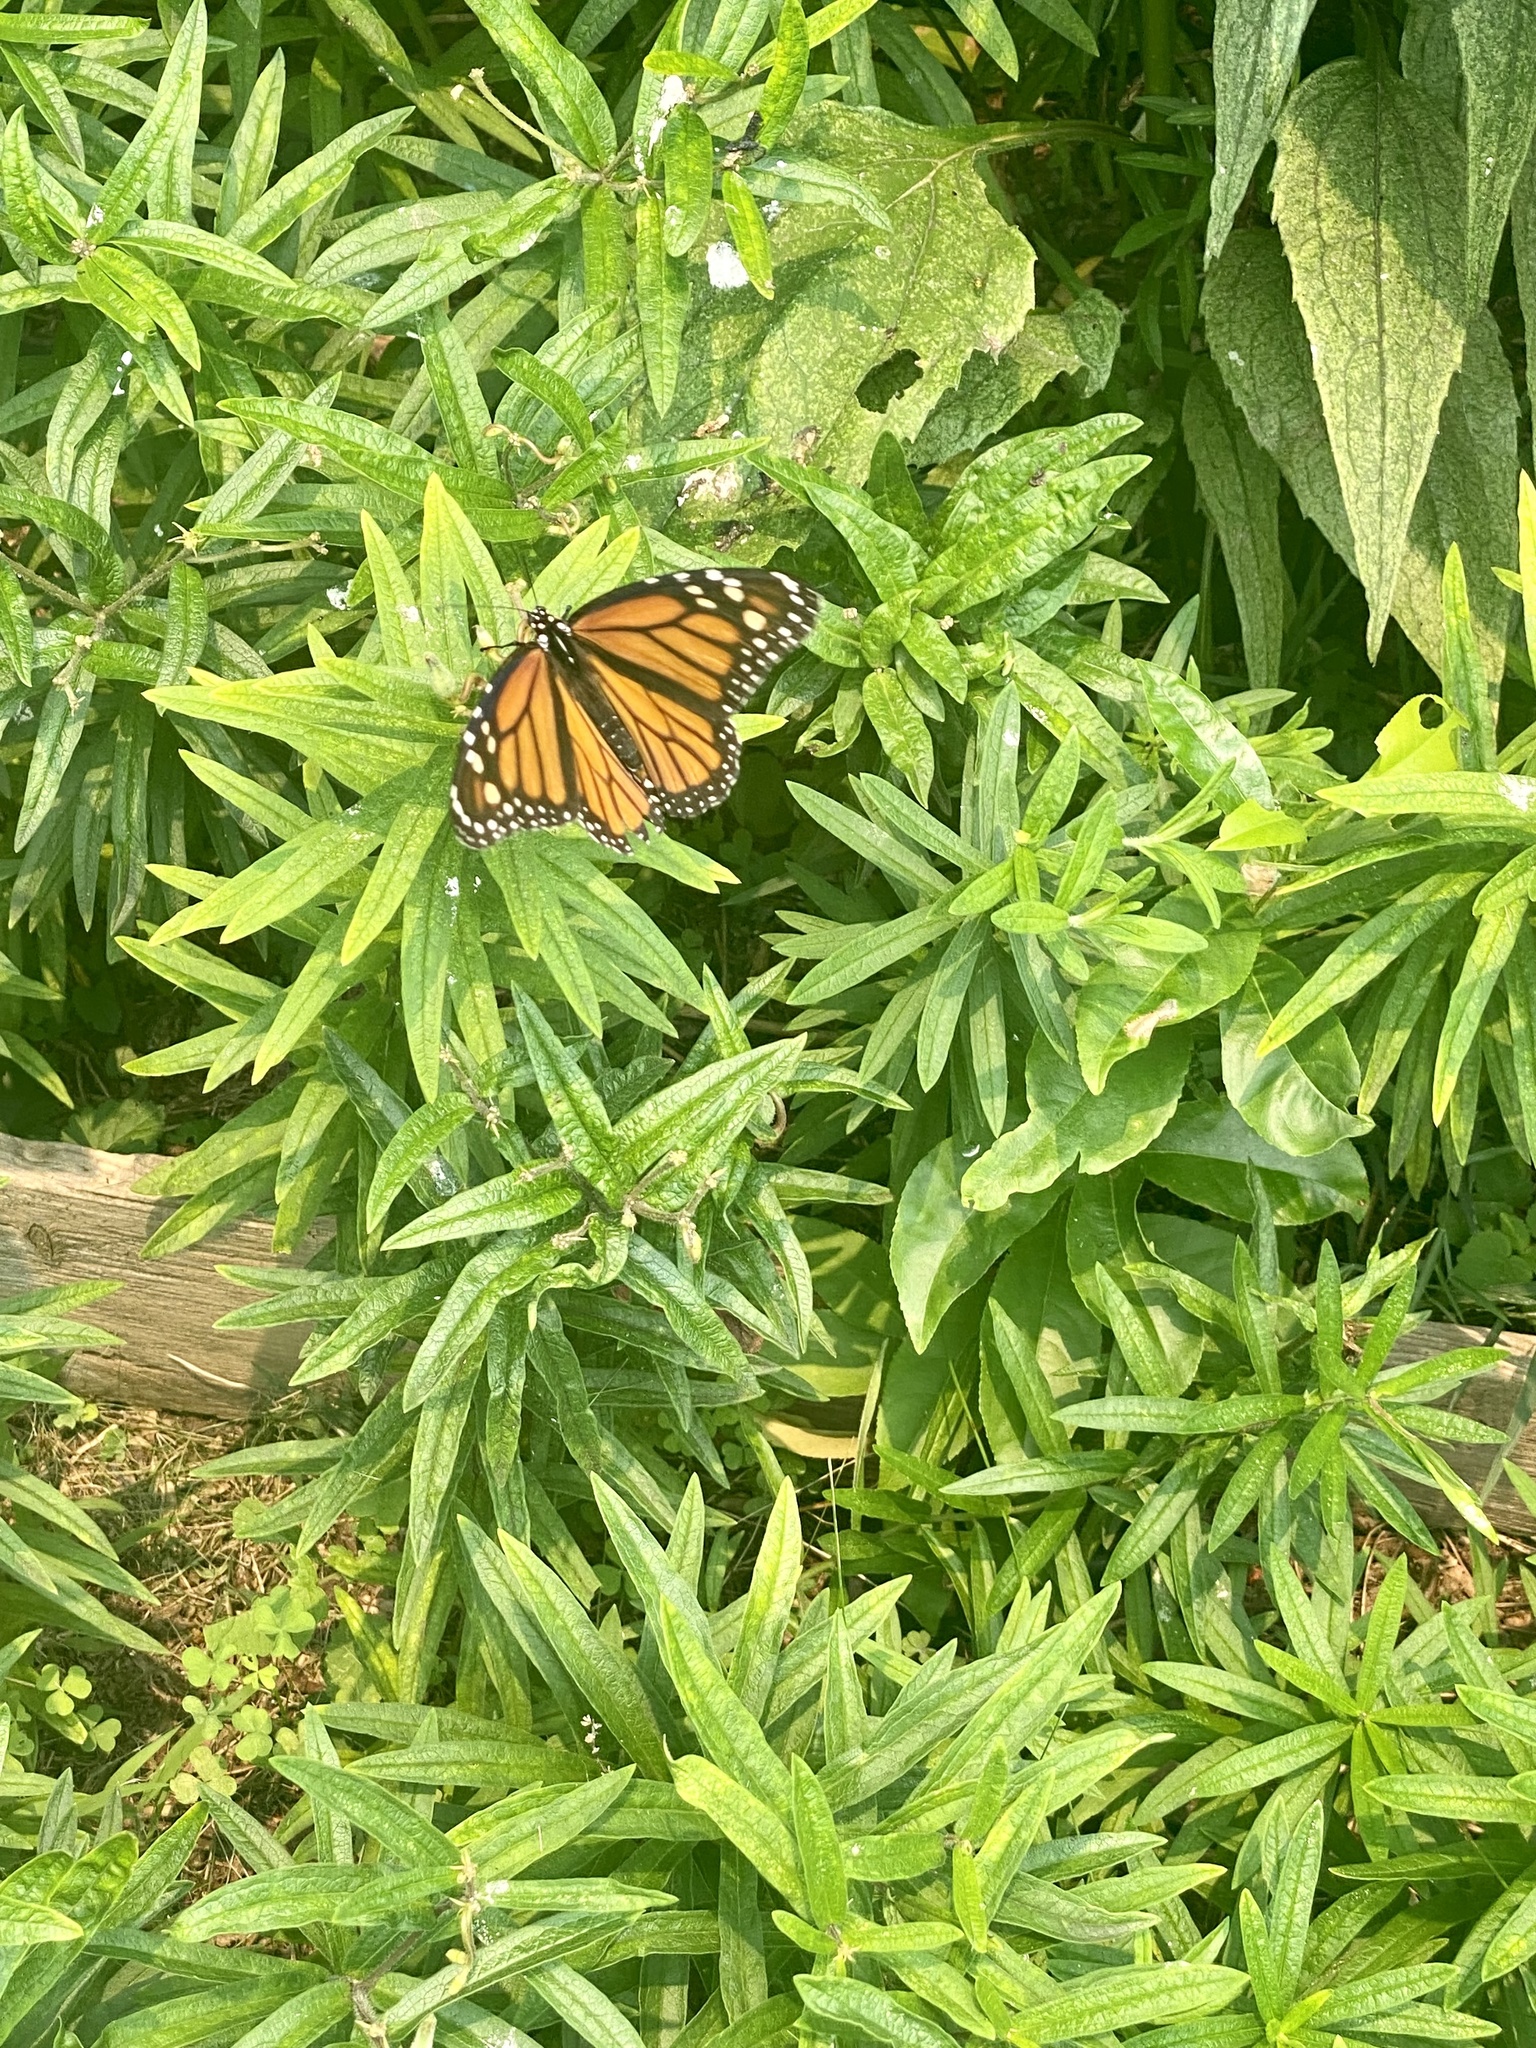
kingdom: Animalia
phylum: Arthropoda
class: Insecta
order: Lepidoptera
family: Nymphalidae
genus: Danaus
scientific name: Danaus plexippus
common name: Monarch
